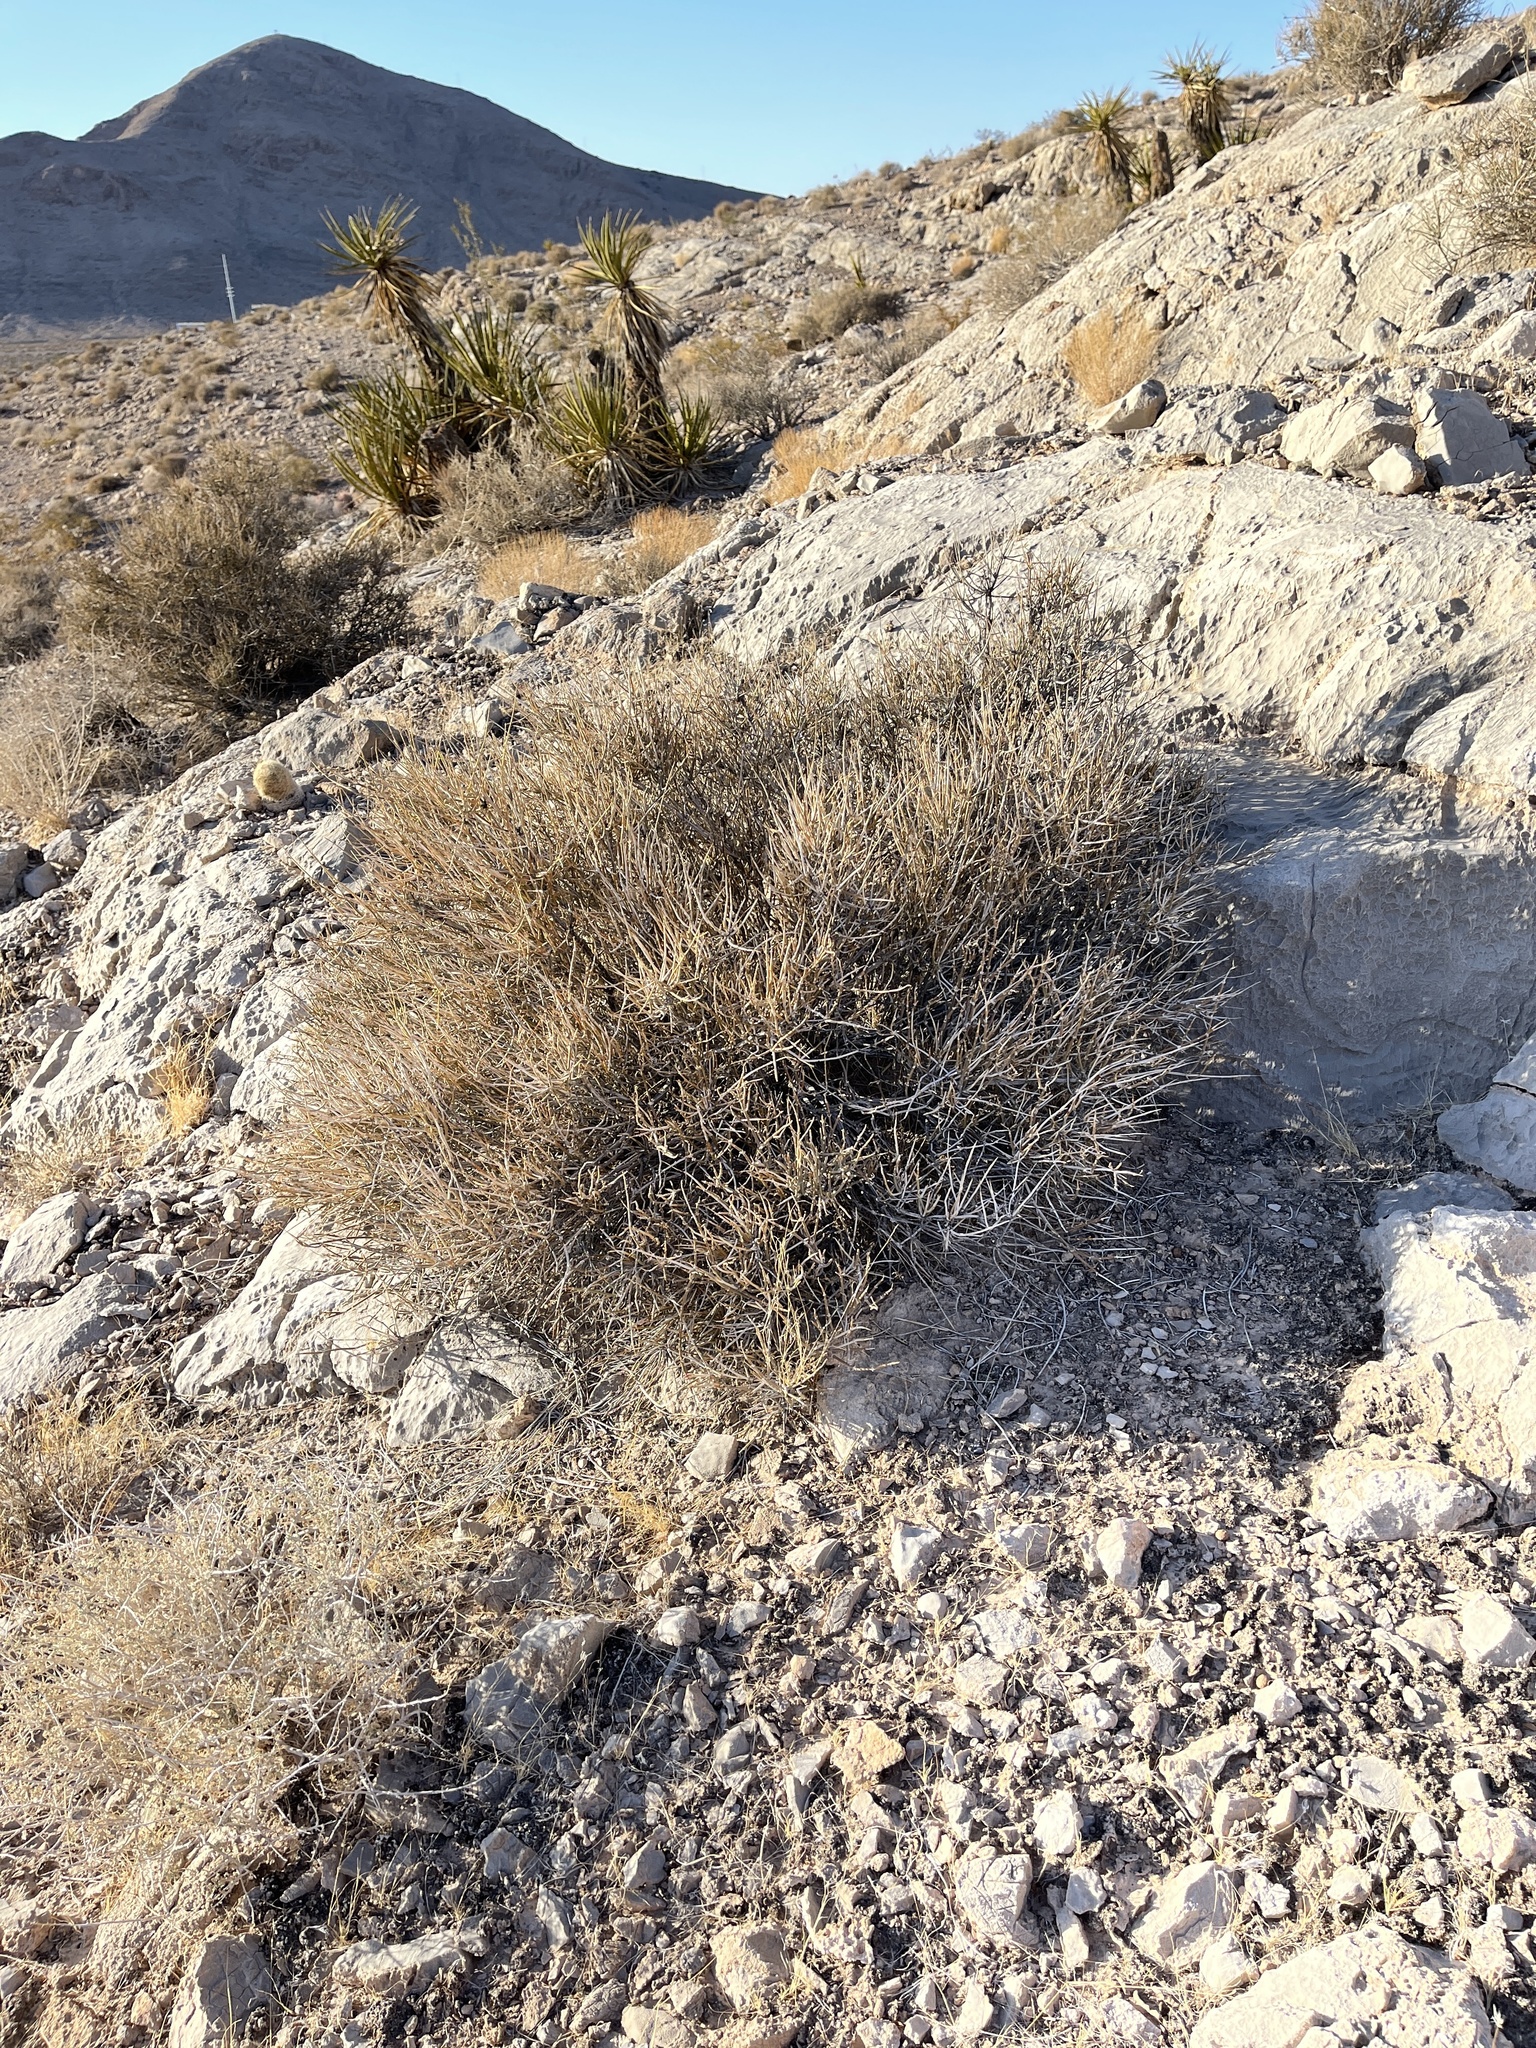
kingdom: Plantae
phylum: Tracheophyta
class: Gnetopsida
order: Ephedrales
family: Ephedraceae
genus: Ephedra
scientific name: Ephedra nevadensis
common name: Gray ephedra
